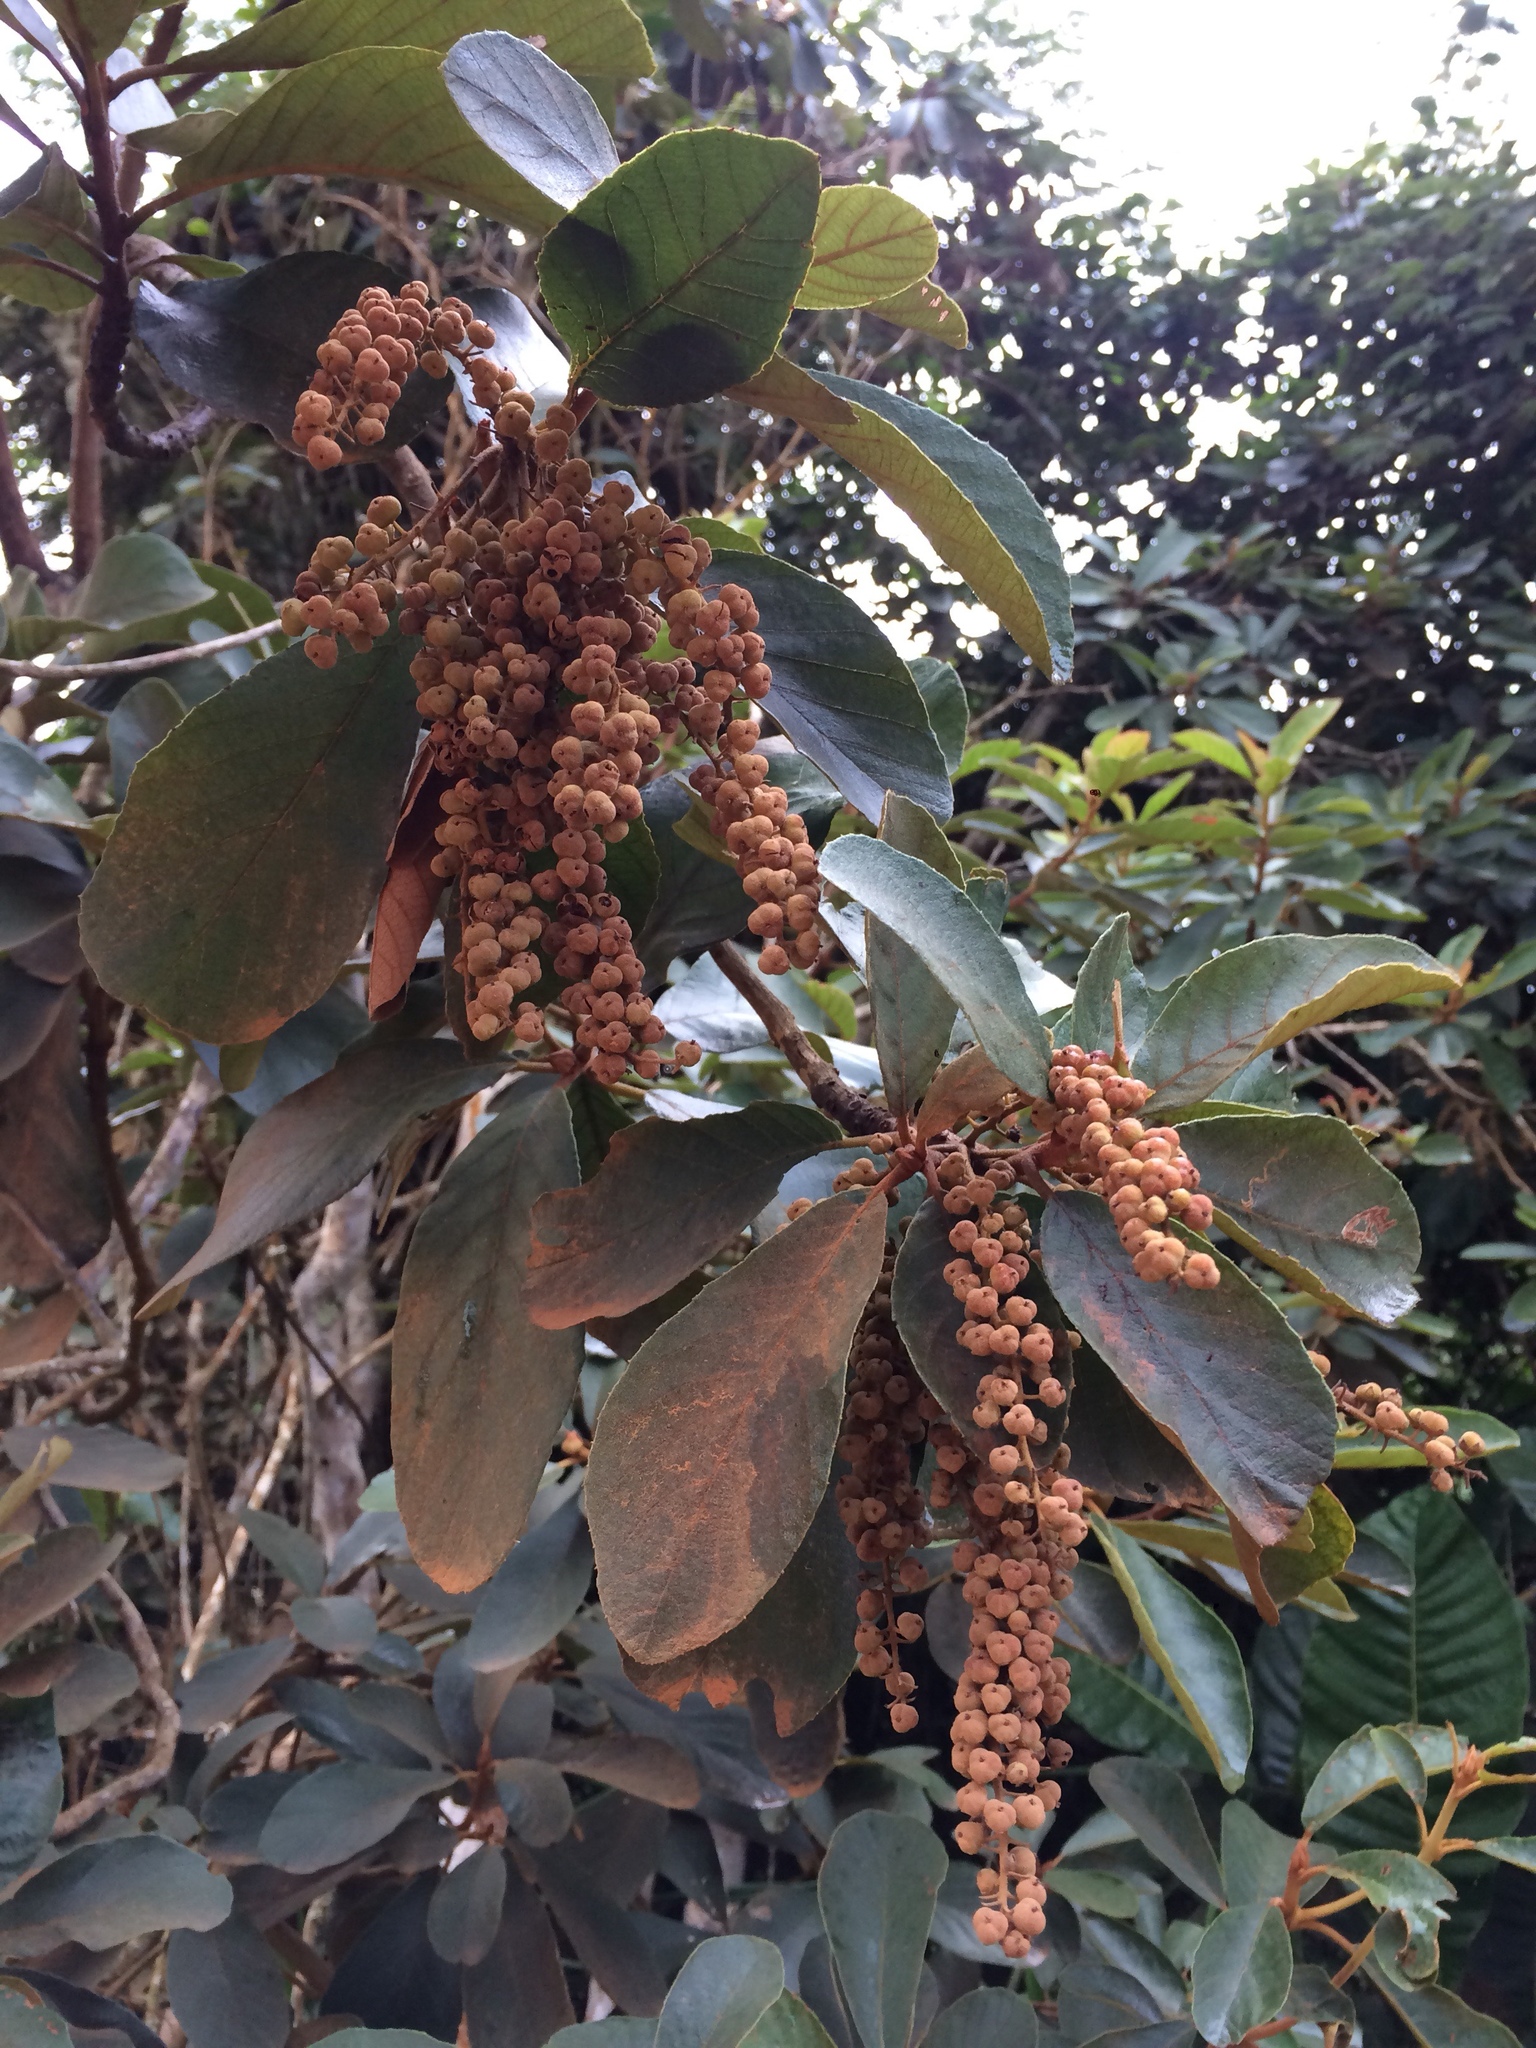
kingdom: Plantae
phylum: Tracheophyta
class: Magnoliopsida
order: Ericales
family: Clethraceae
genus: Clethra
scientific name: Clethra scabra
